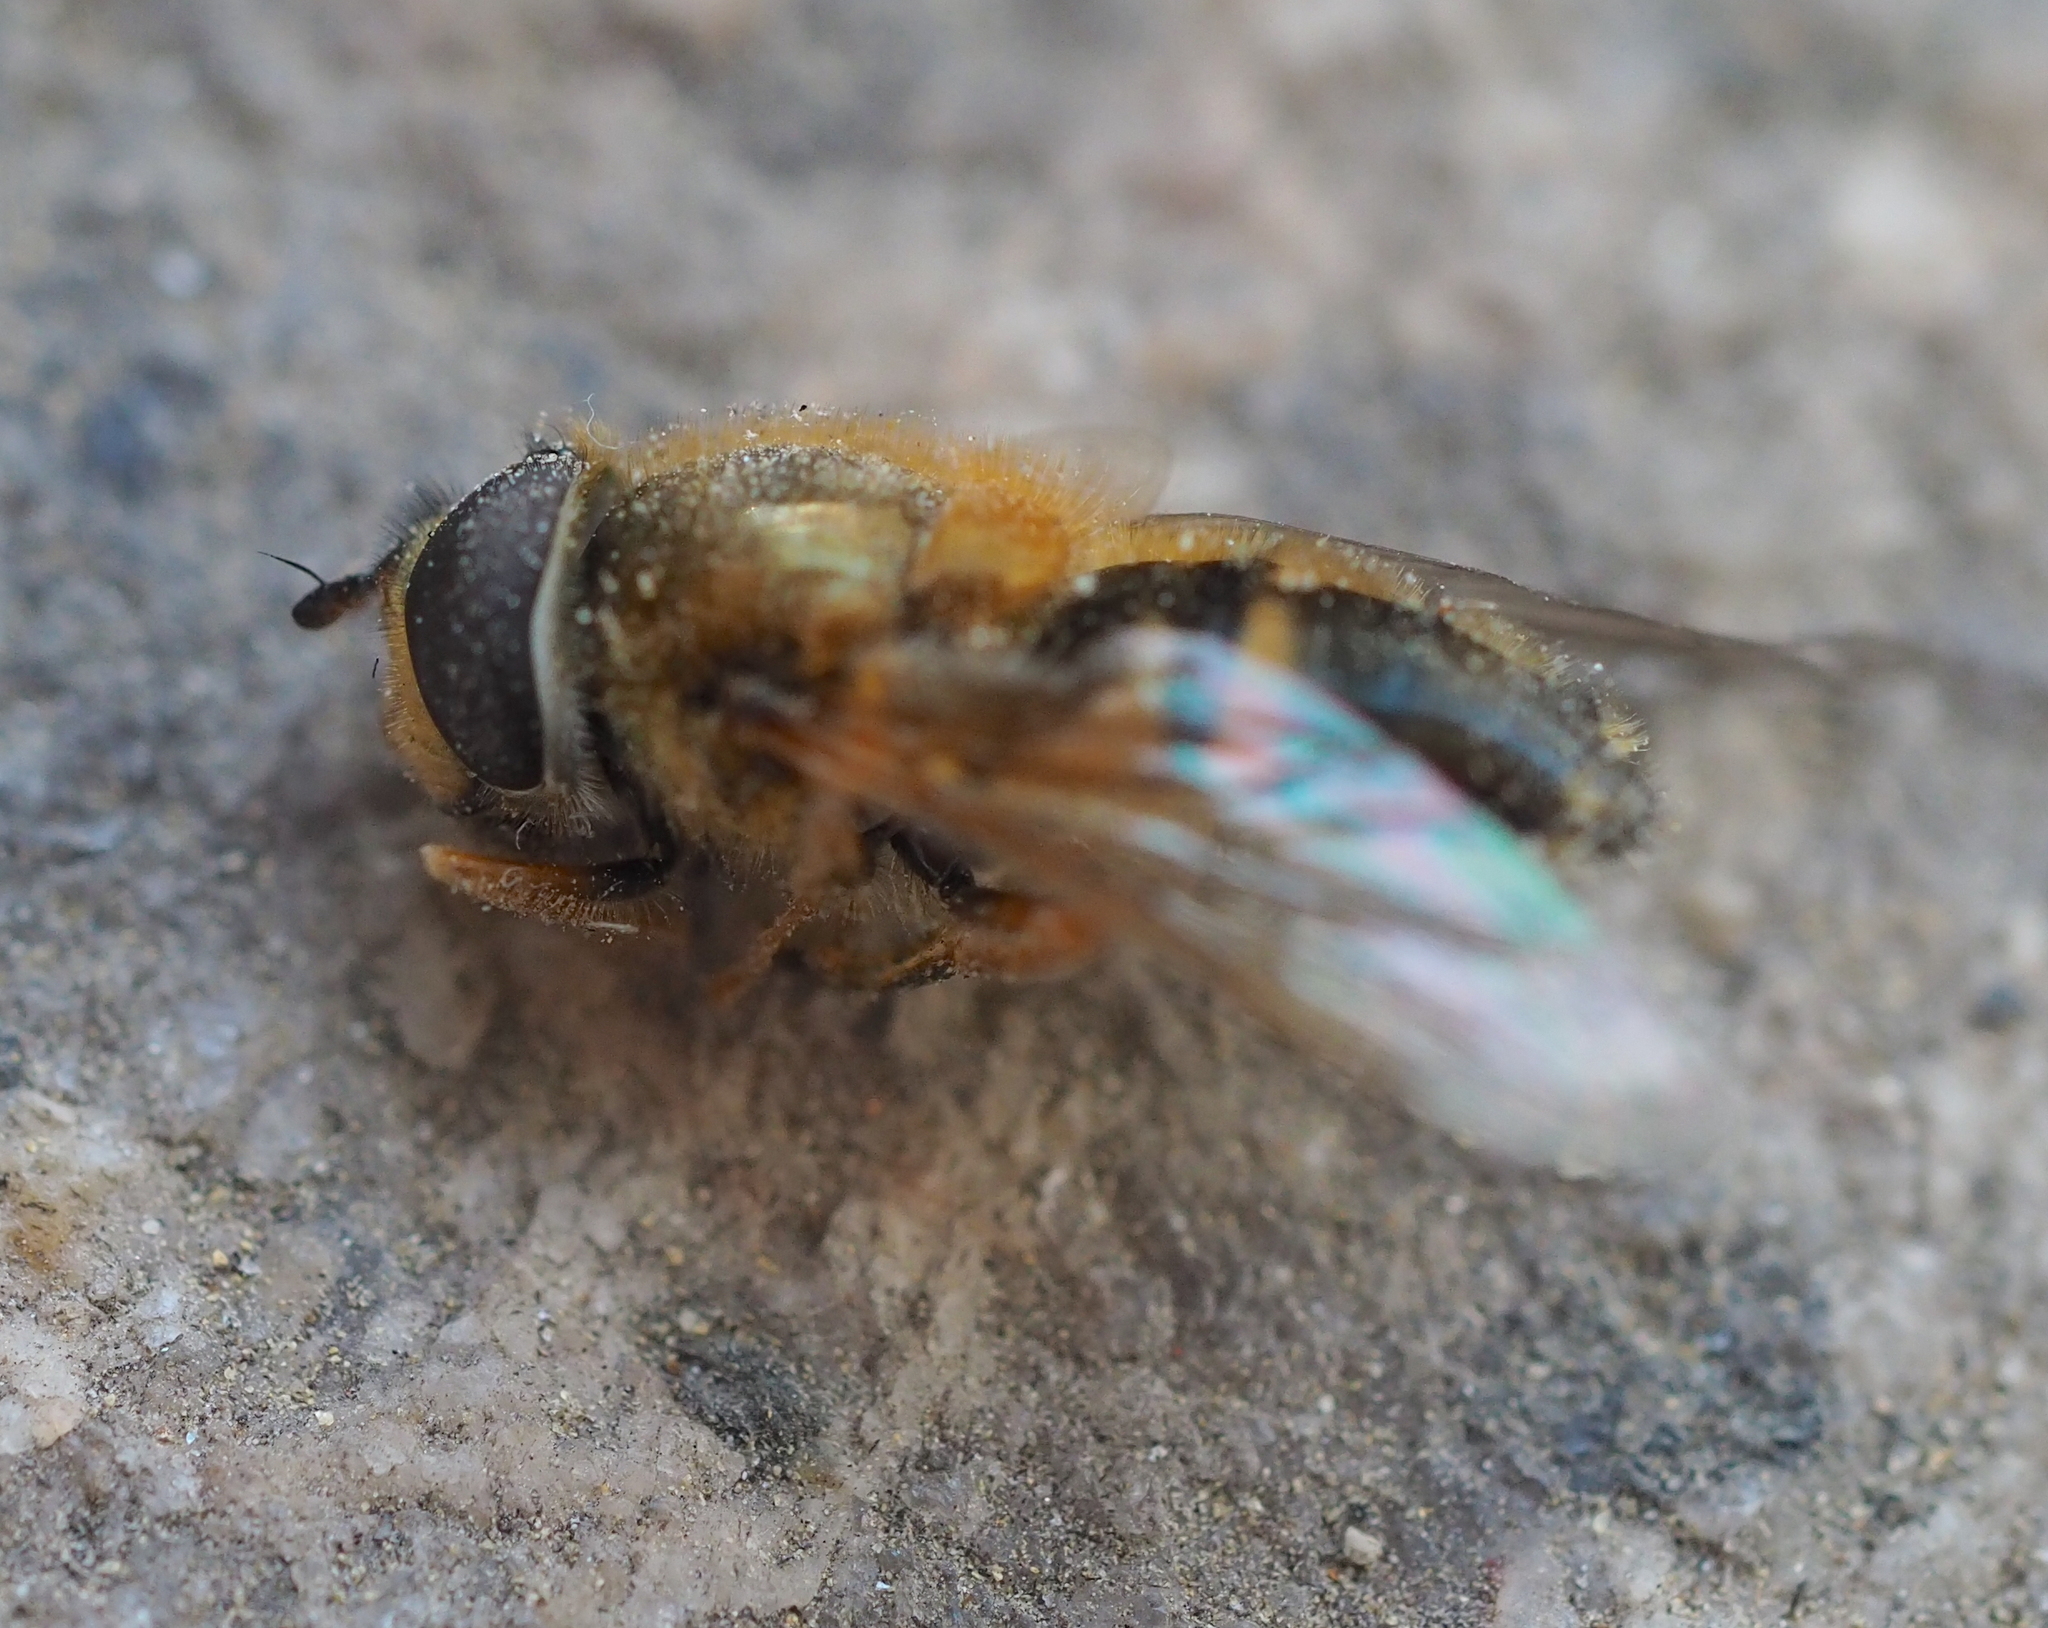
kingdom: Animalia
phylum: Arthropoda
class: Insecta
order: Diptera
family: Syrphidae
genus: Epistrophe
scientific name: Epistrophe eligans
